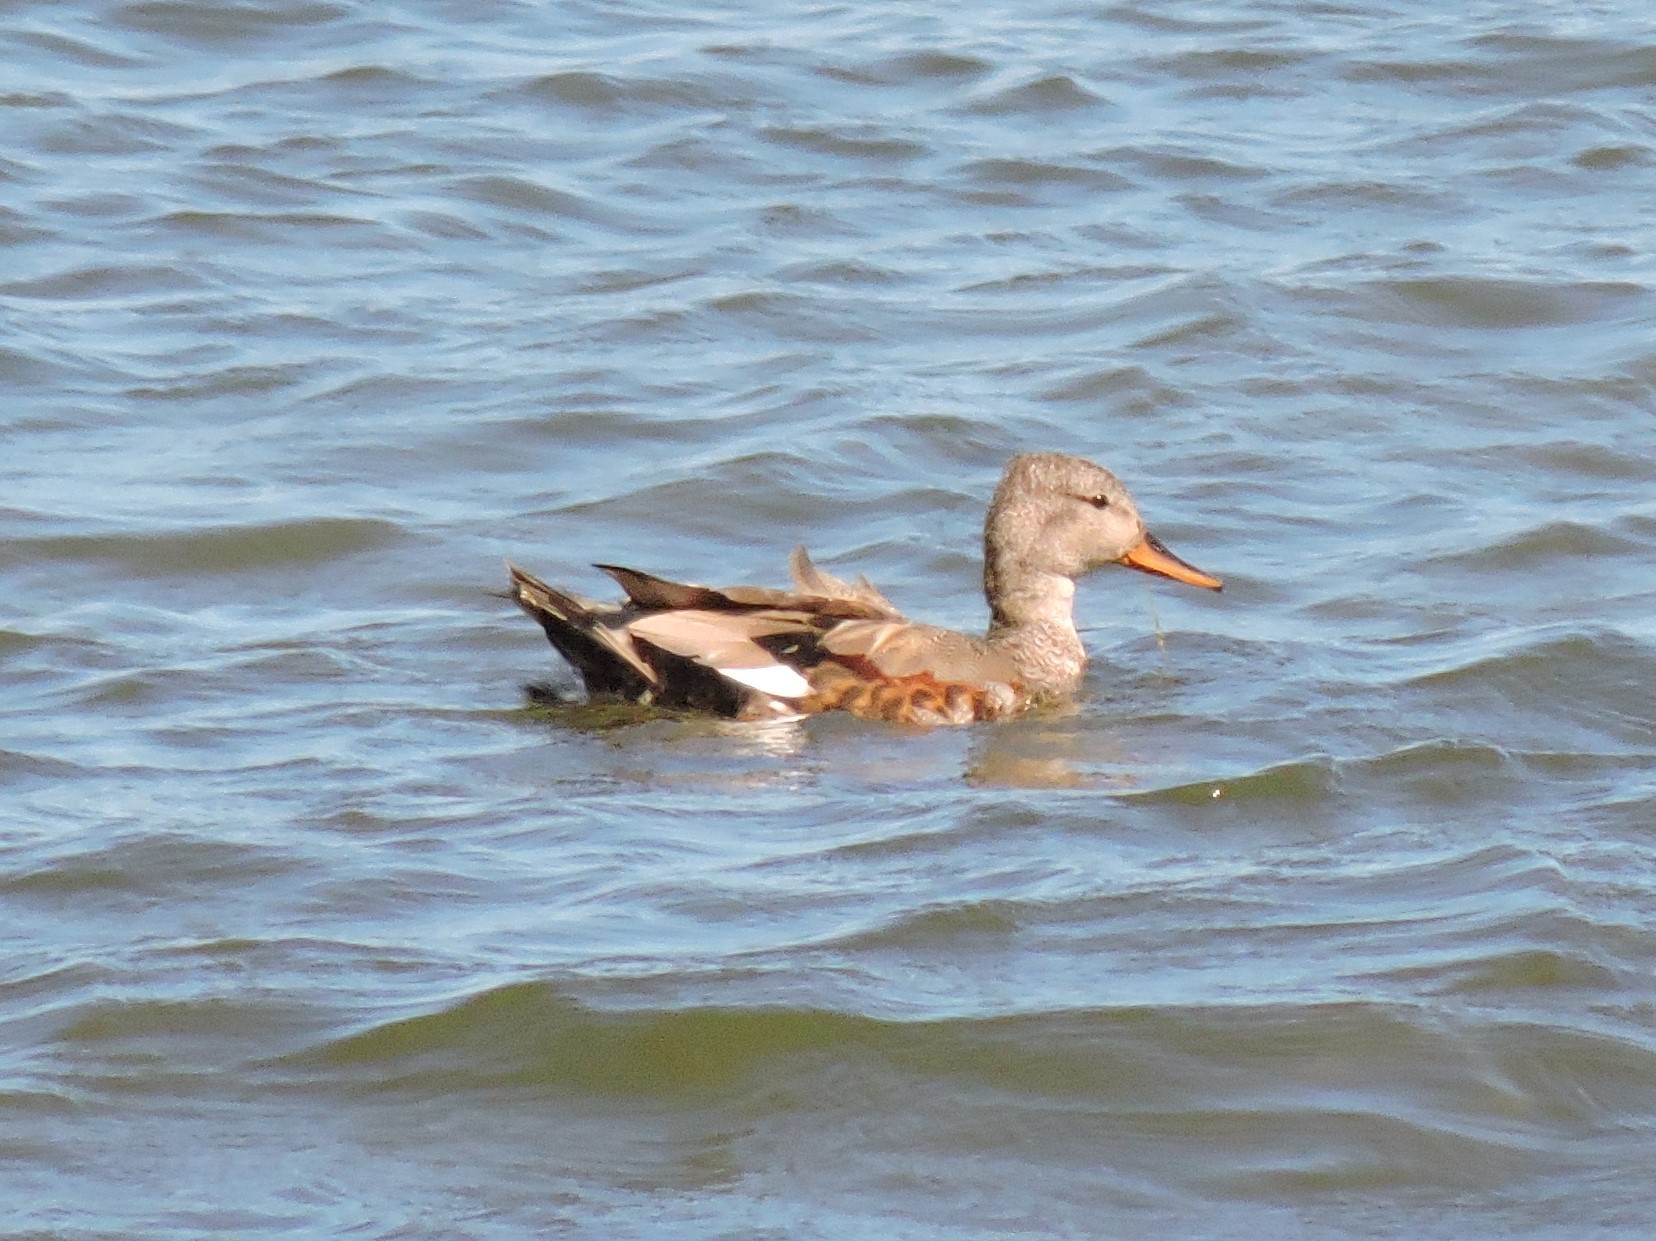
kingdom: Animalia
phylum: Chordata
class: Aves
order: Anseriformes
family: Anatidae
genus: Mareca
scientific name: Mareca strepera
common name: Gadwall
